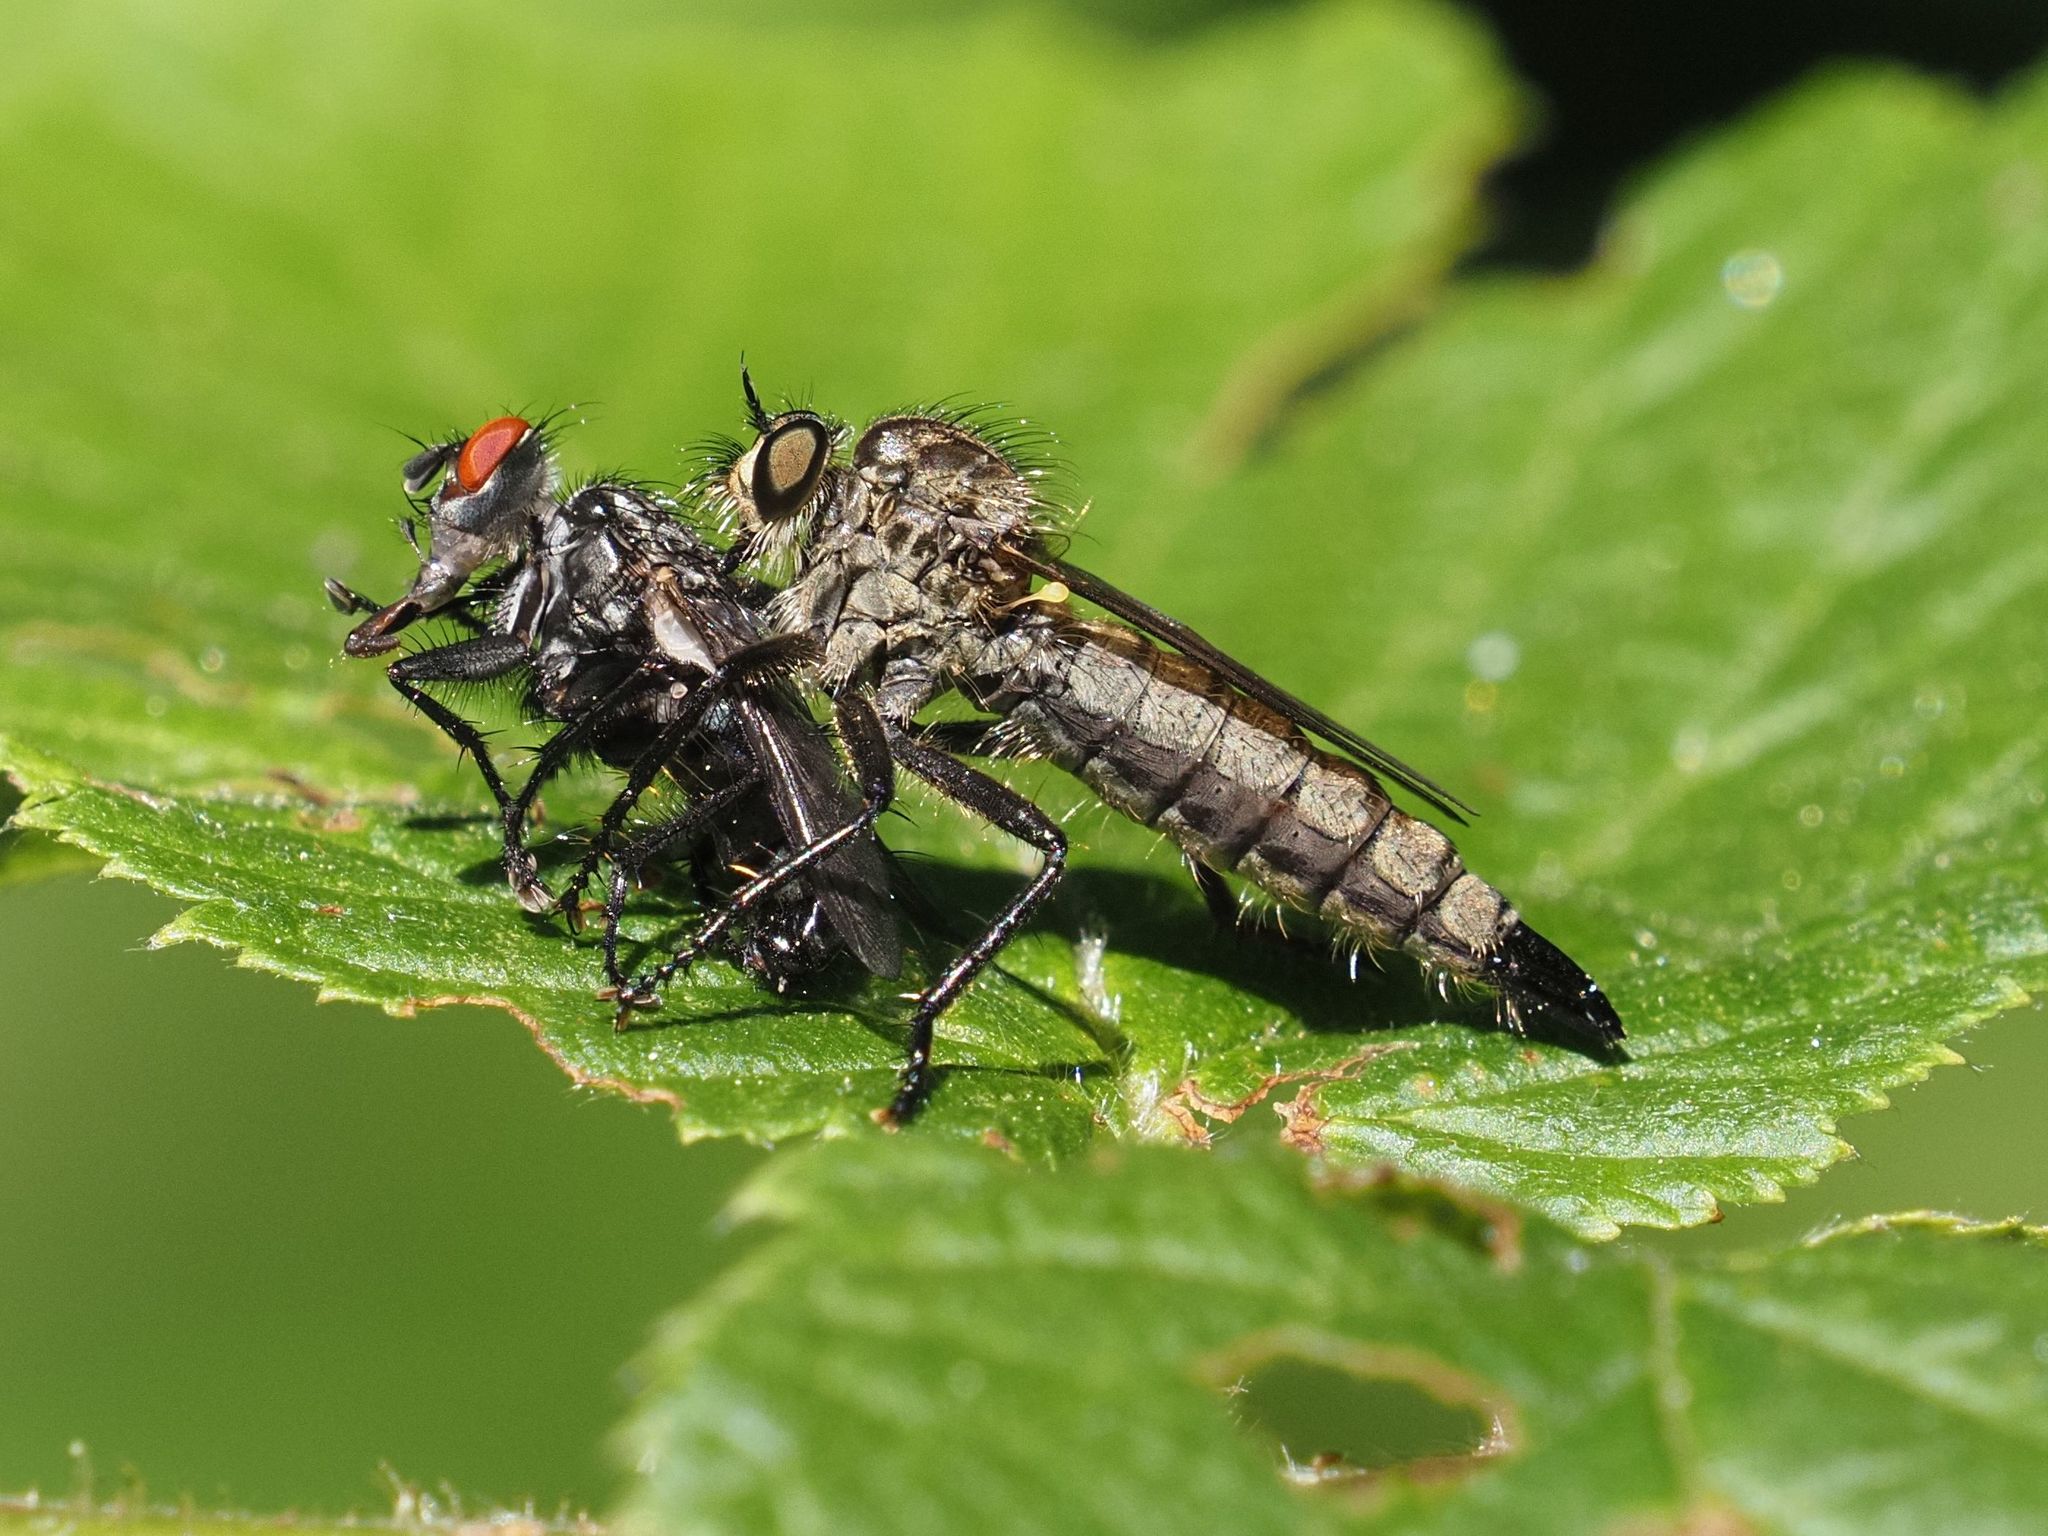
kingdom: Animalia
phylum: Arthropoda
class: Insecta
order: Diptera
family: Asilidae
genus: Didysmachus
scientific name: Didysmachus picipes
